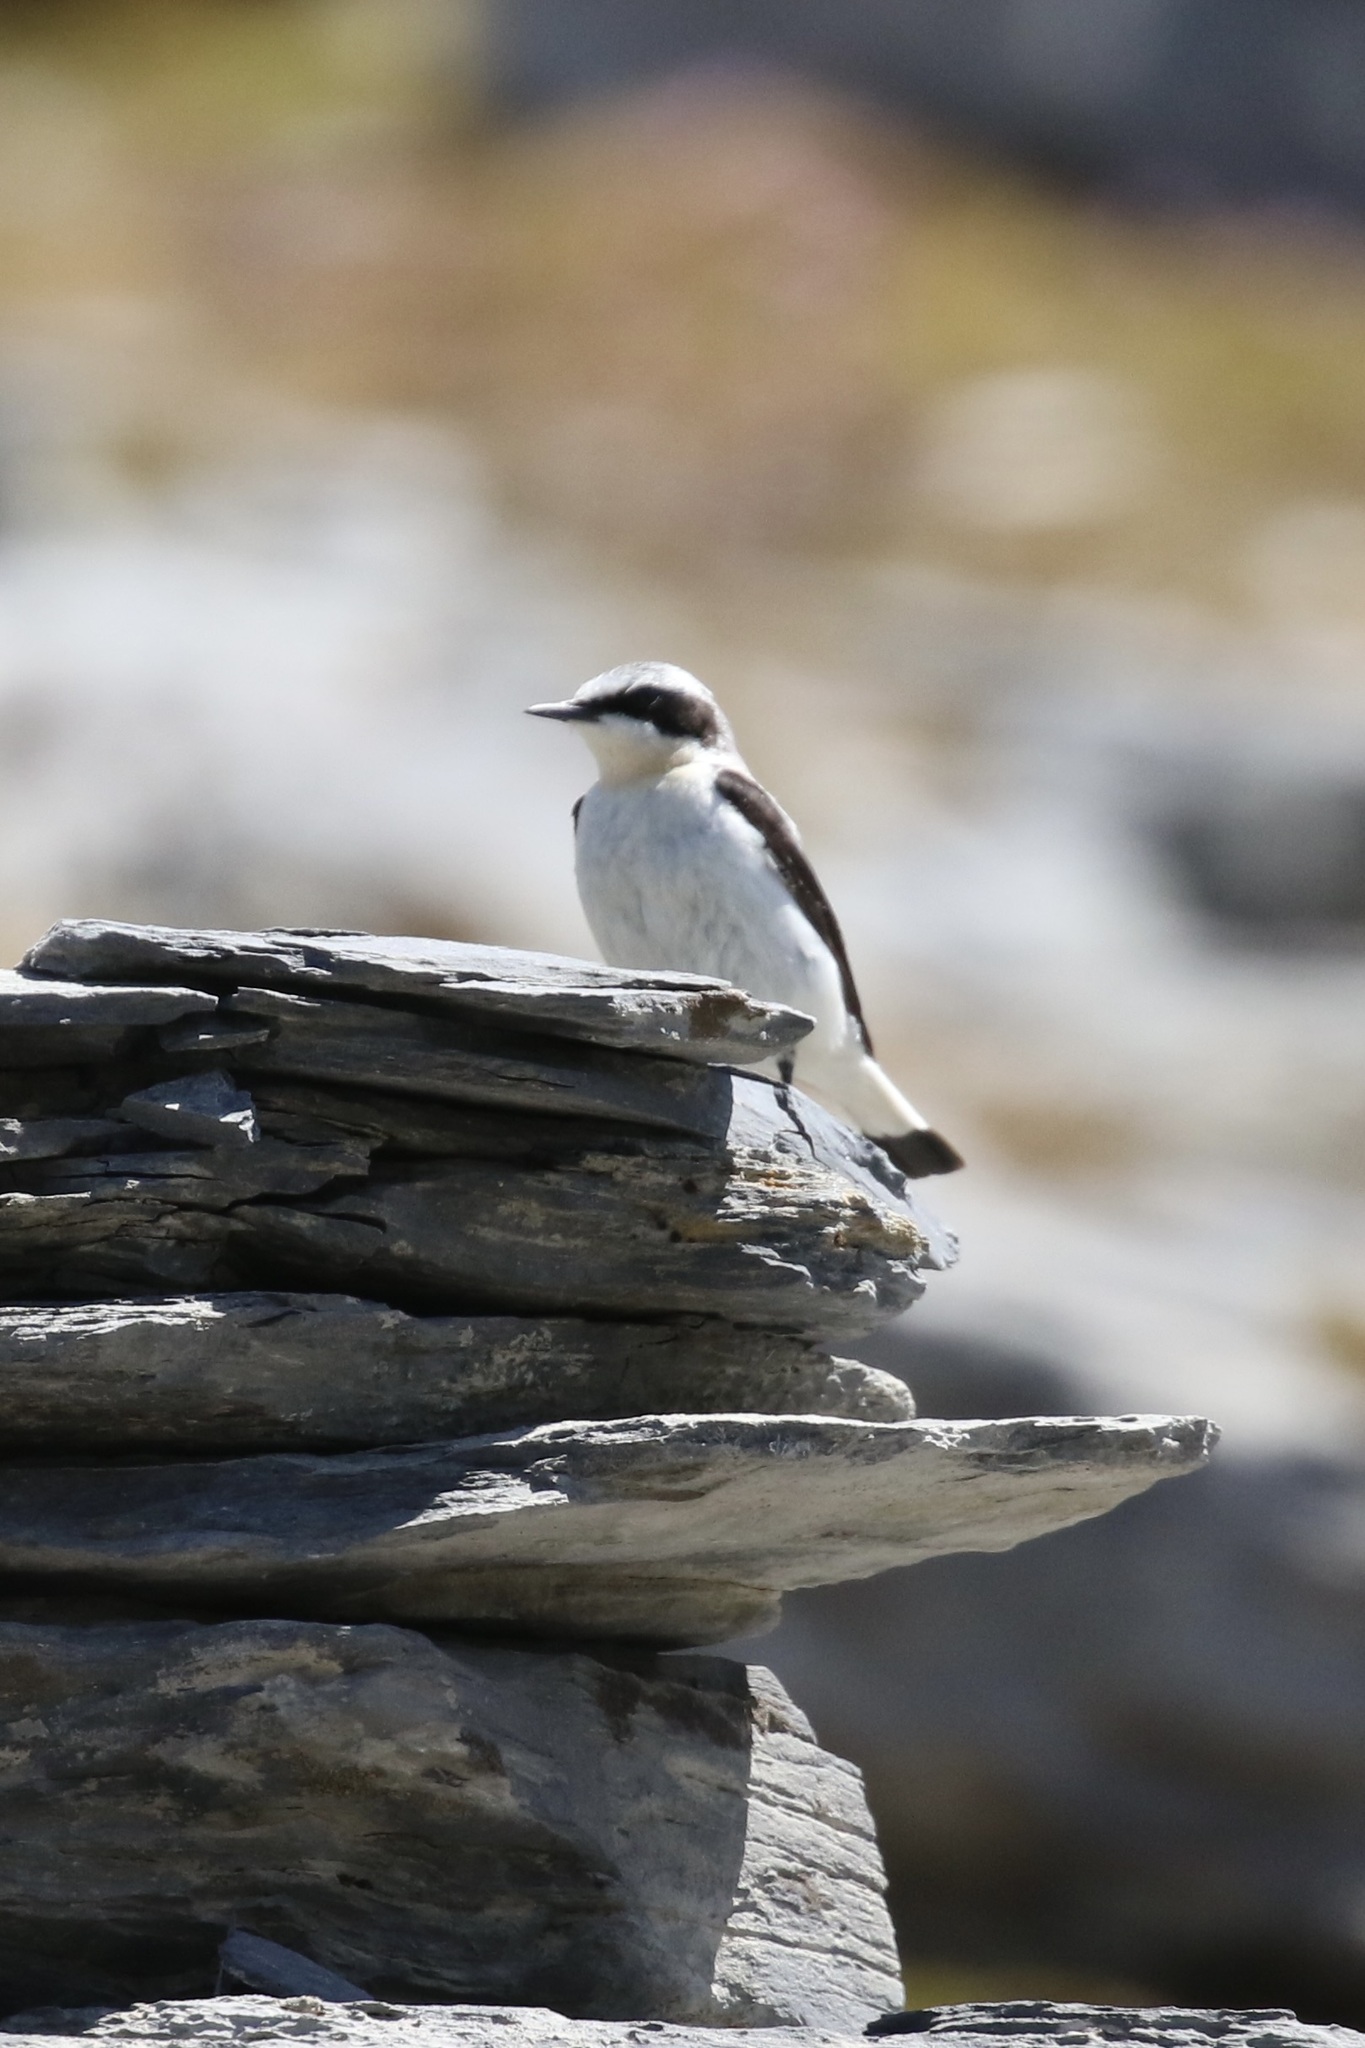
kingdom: Animalia
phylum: Chordata
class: Aves
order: Passeriformes
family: Muscicapidae
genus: Oenanthe
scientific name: Oenanthe oenanthe
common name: Northern wheatear
